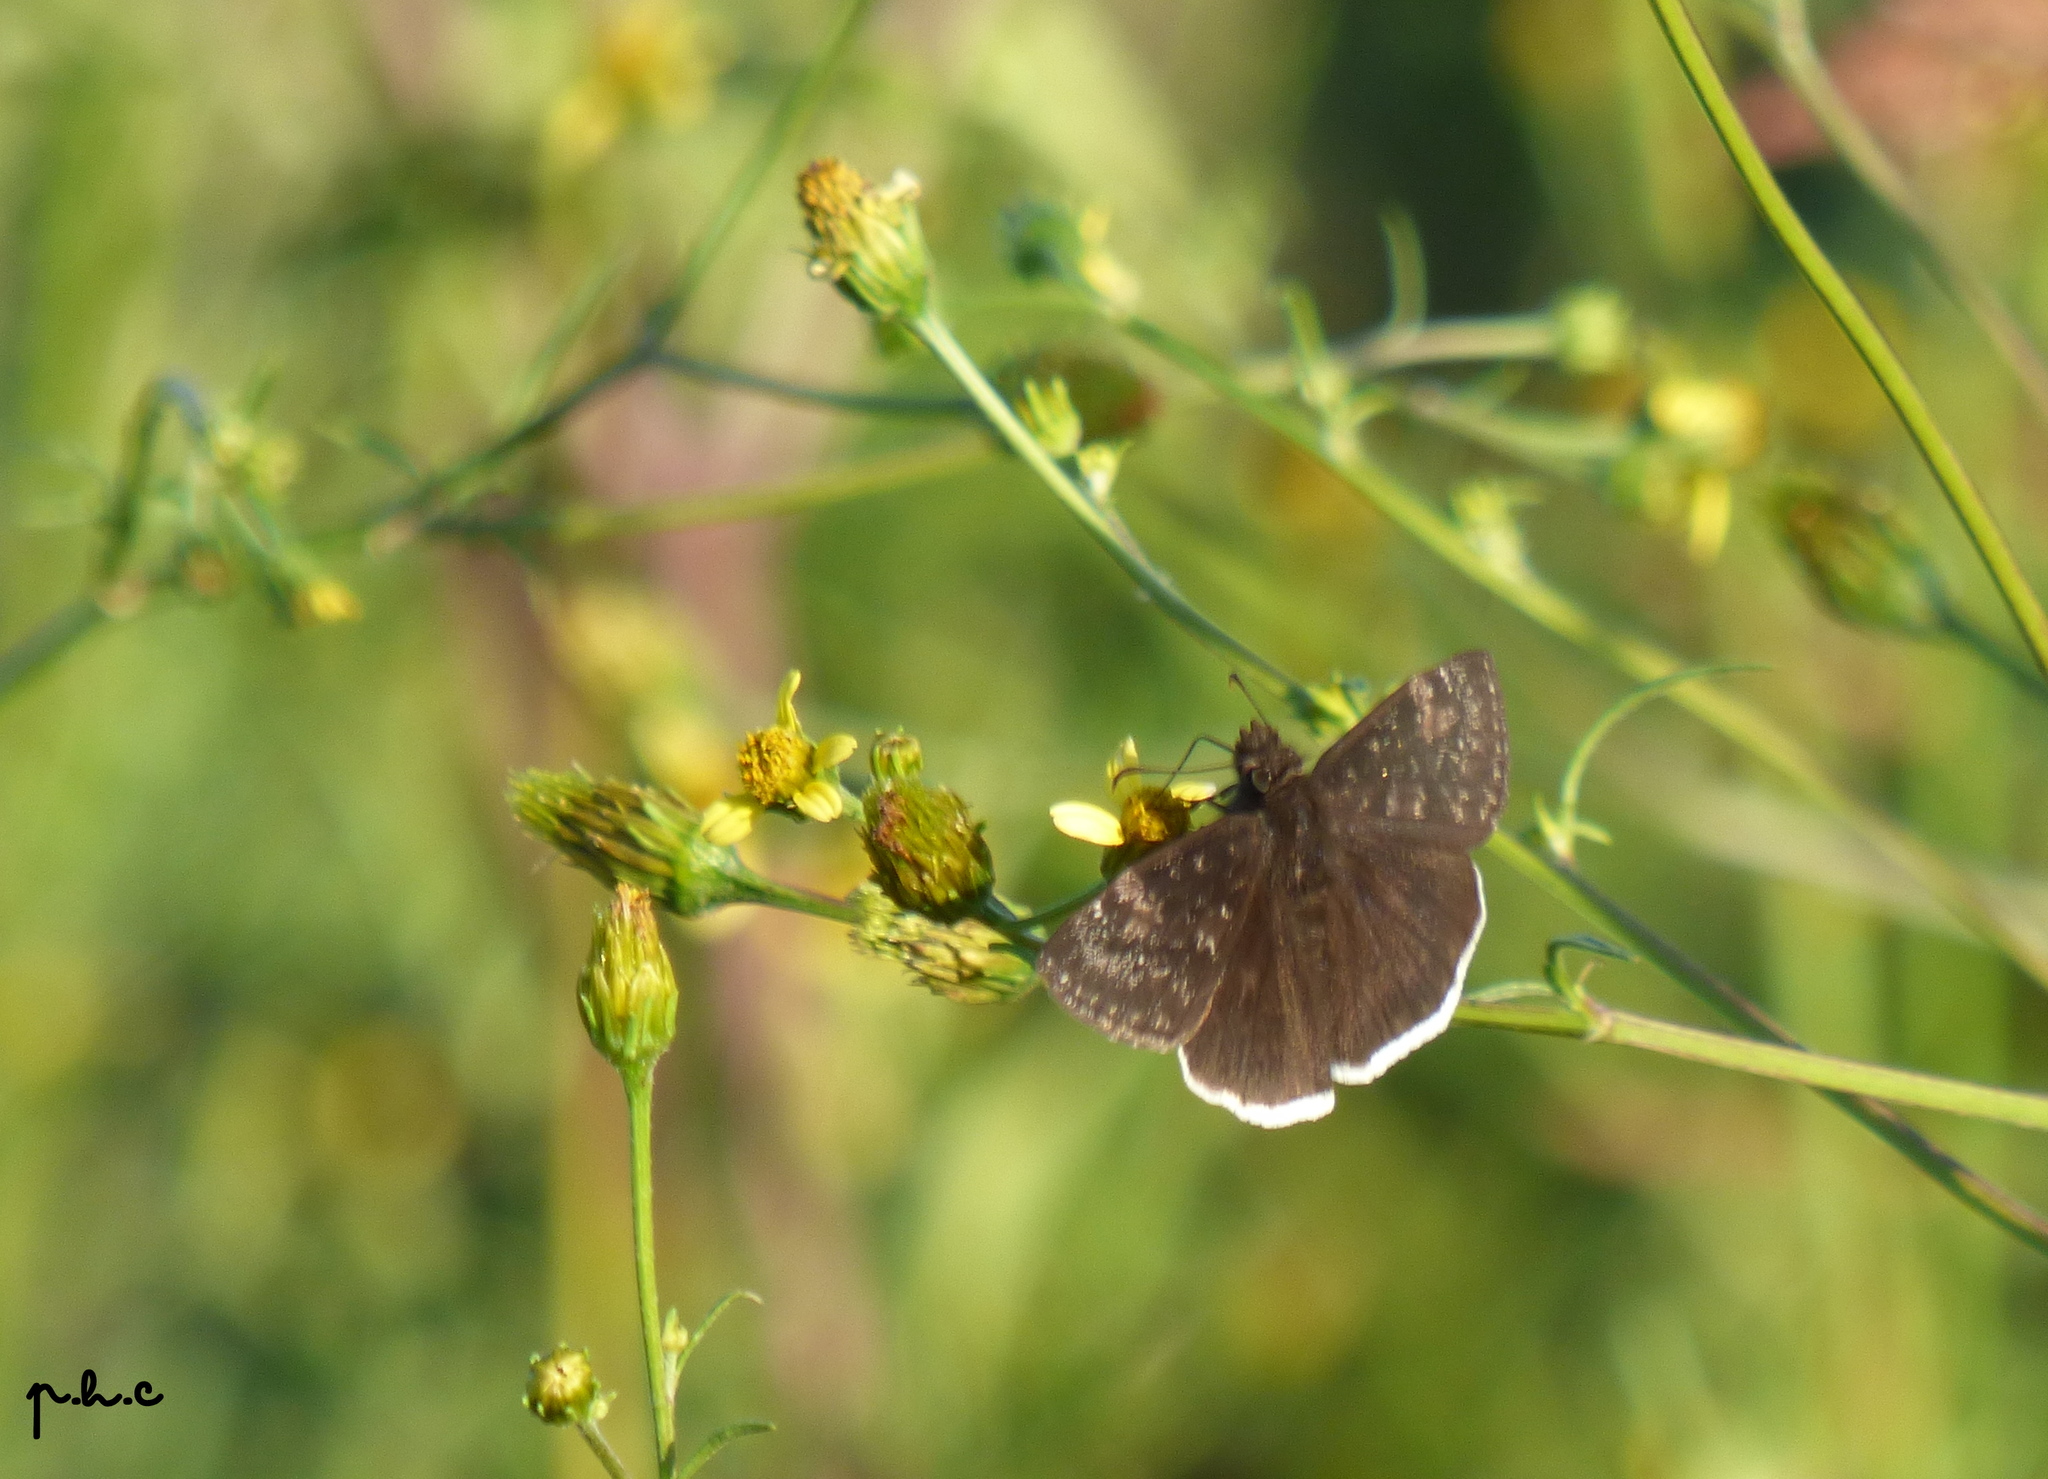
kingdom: Animalia
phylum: Arthropoda
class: Insecta
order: Lepidoptera
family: Hesperiidae
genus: Erynnis
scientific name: Erynnis funeralis
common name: Funereal duskywing
